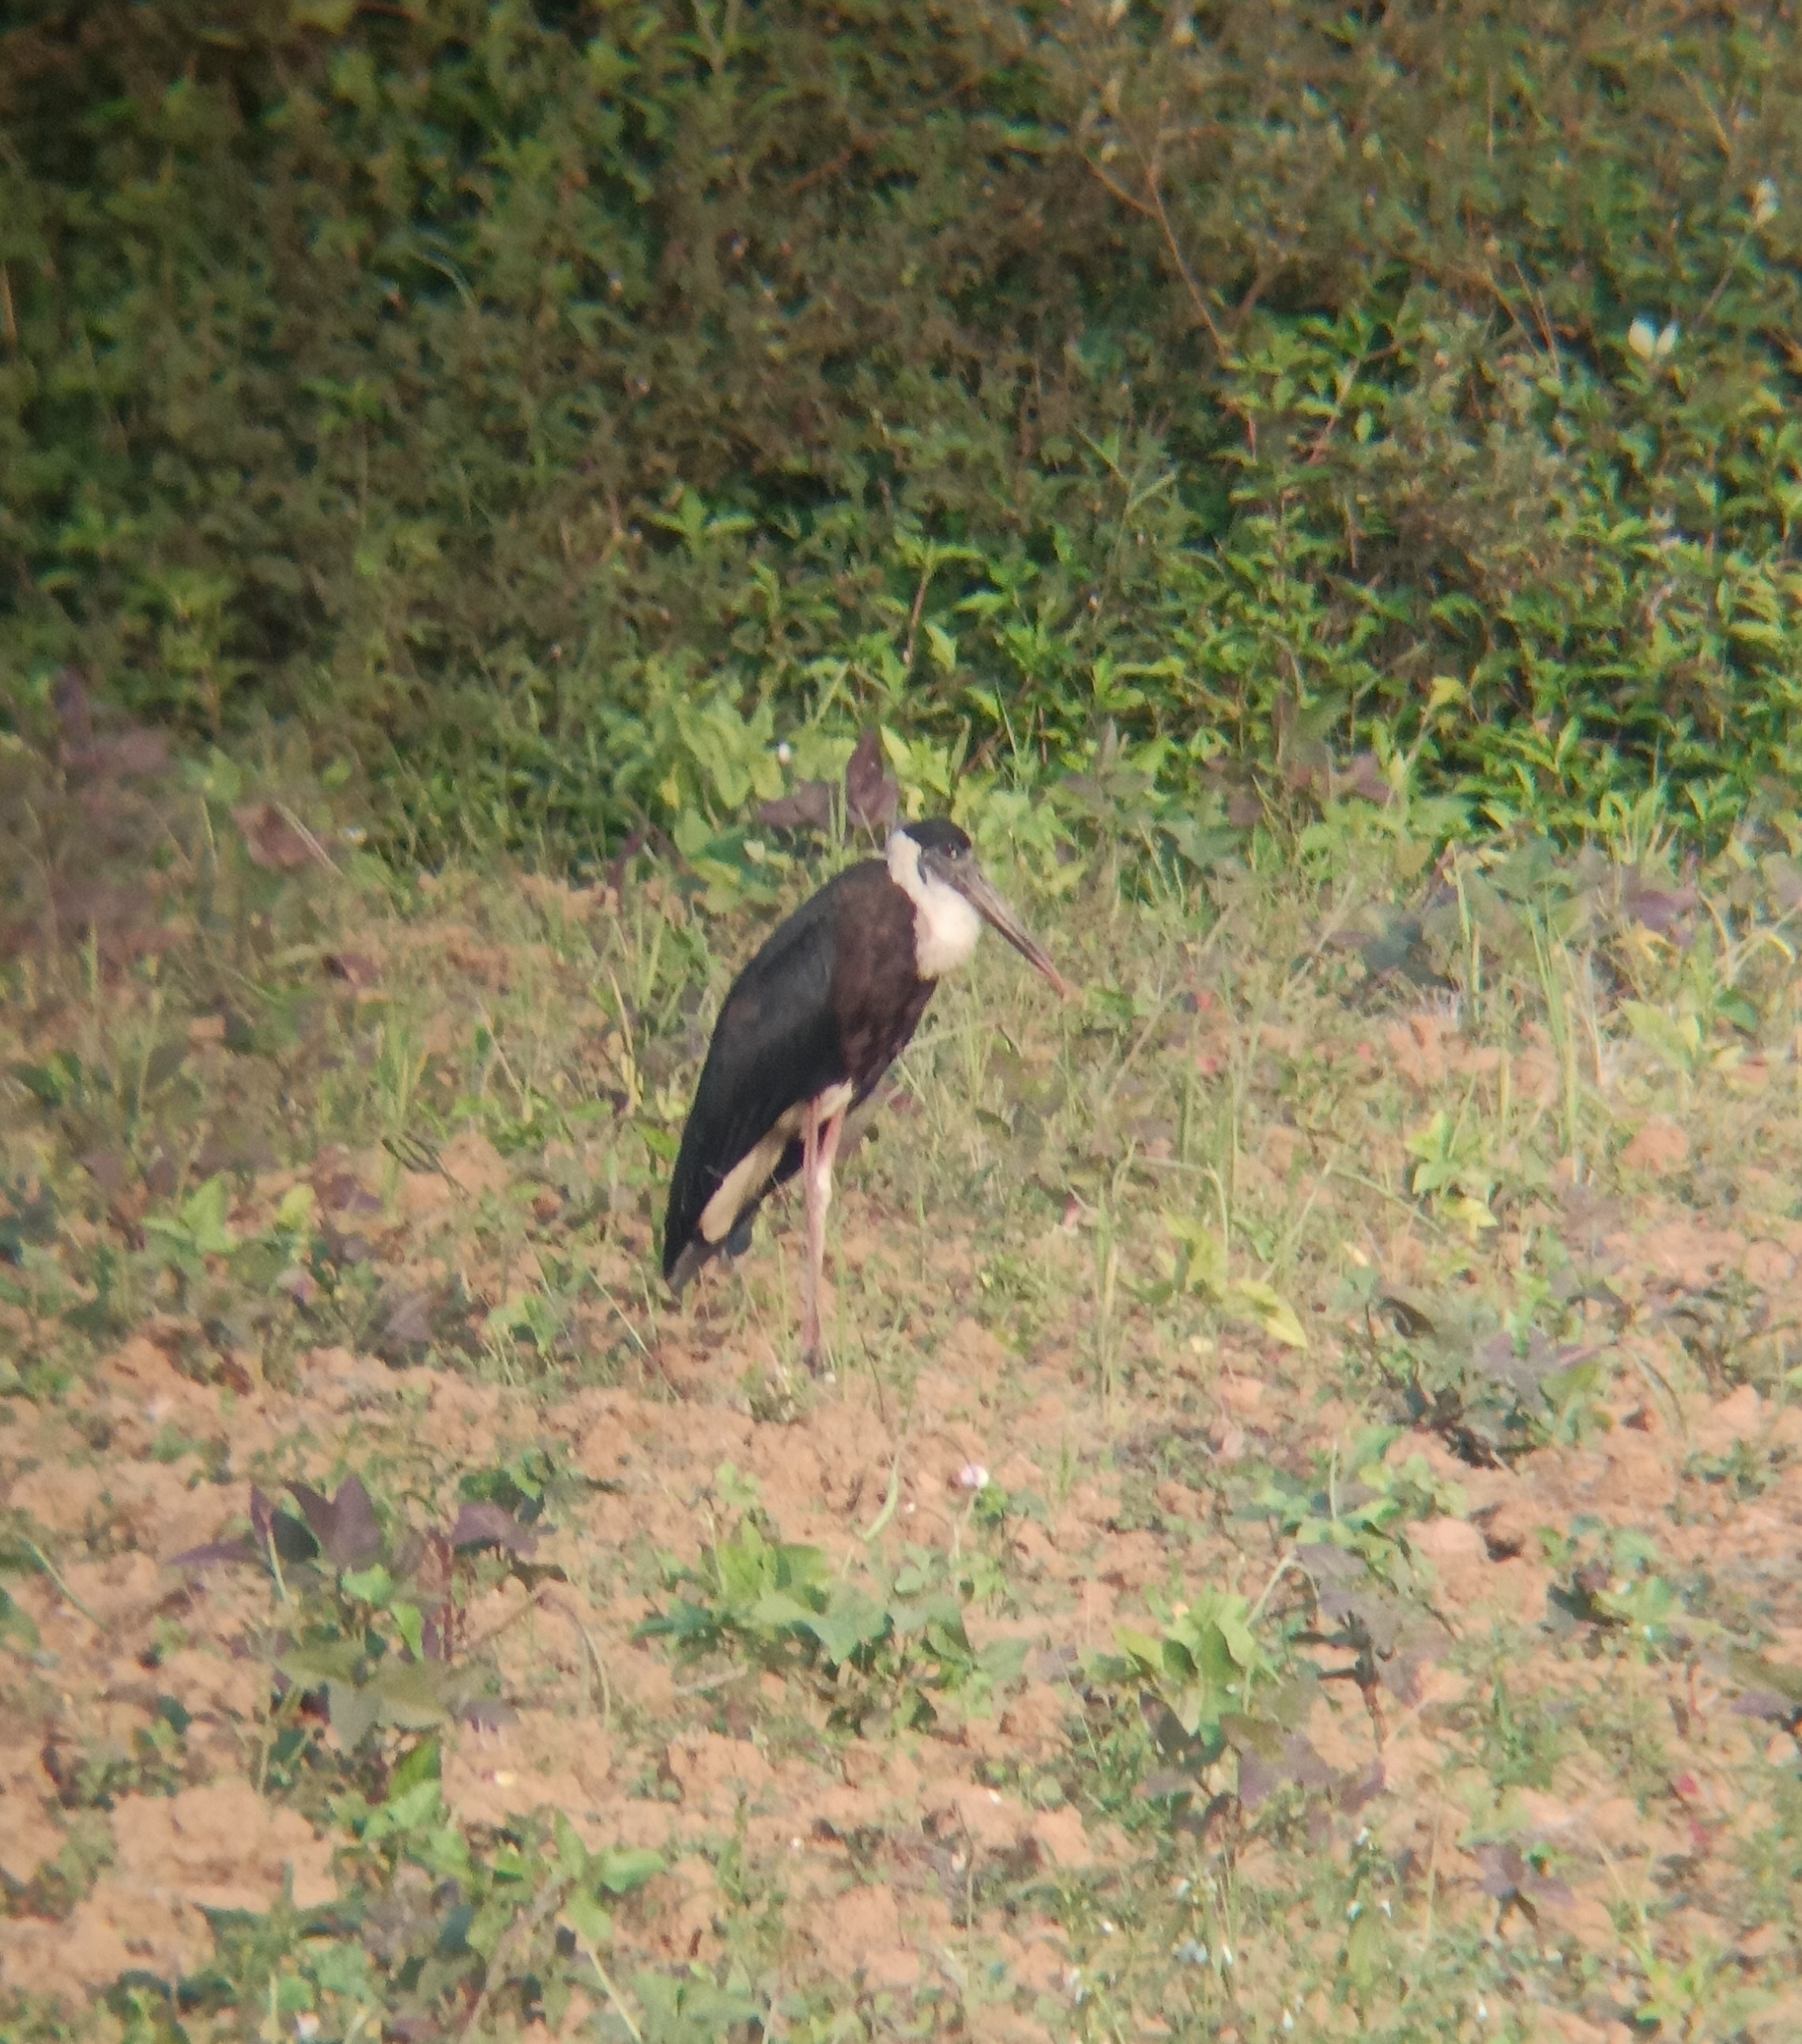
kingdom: Animalia
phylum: Chordata
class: Aves
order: Ciconiiformes
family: Ciconiidae
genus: Ciconia
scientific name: Ciconia episcopus
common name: Woolly-necked stork
